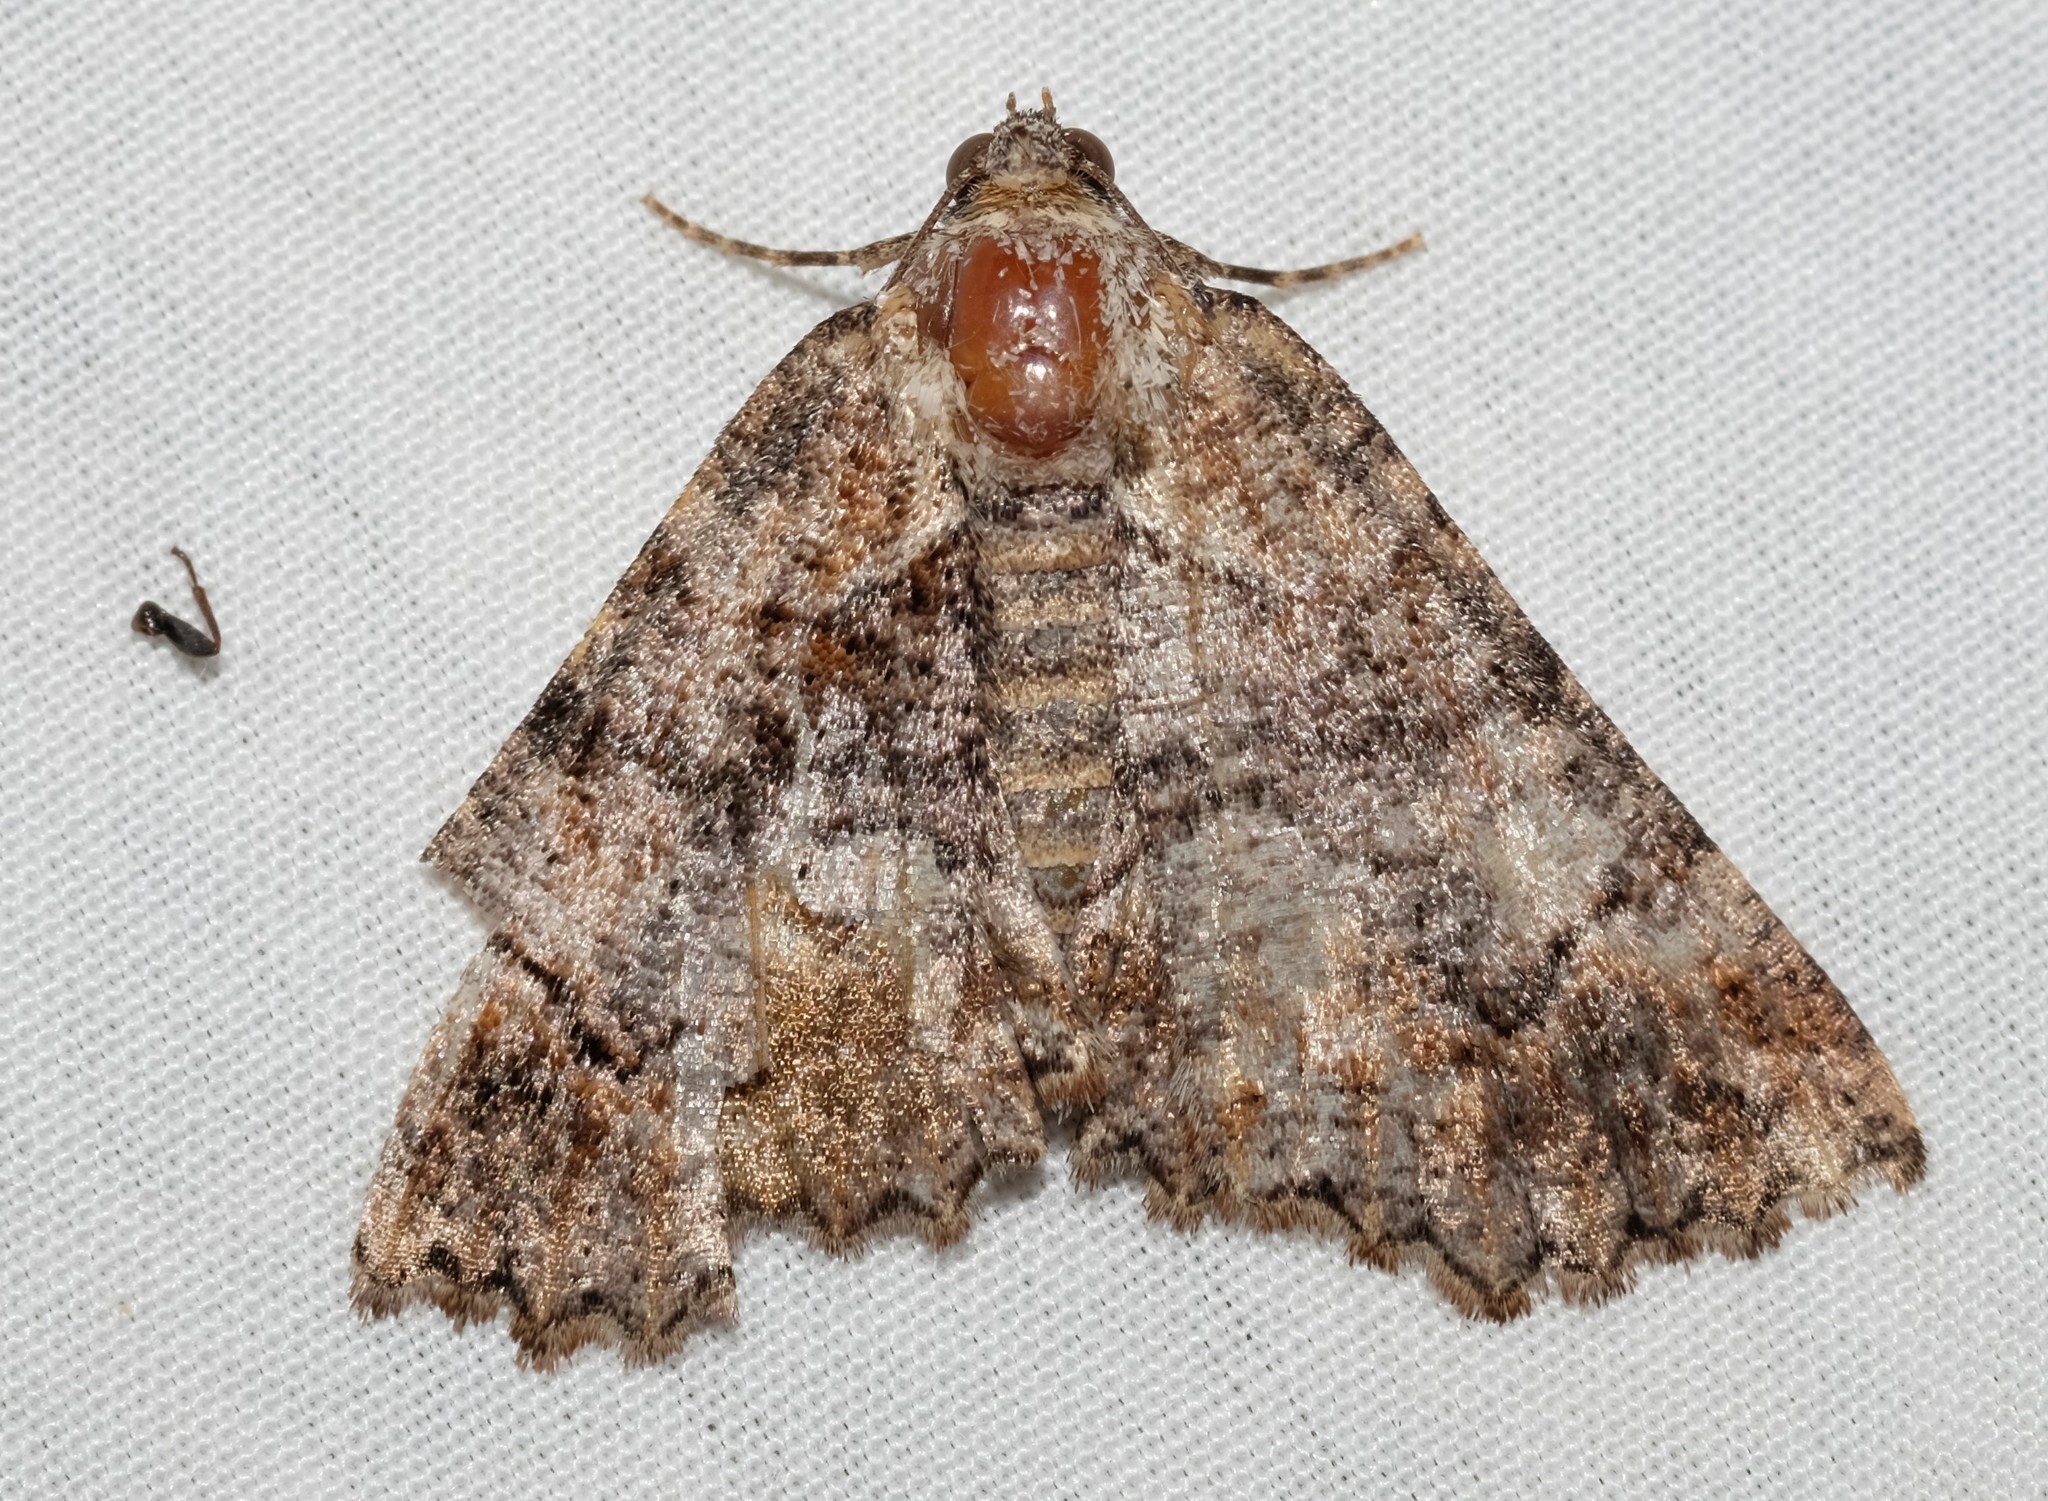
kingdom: Animalia
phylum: Arthropoda
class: Insecta
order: Lepidoptera
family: Geometridae
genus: Gastrina
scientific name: Gastrina cristaria
